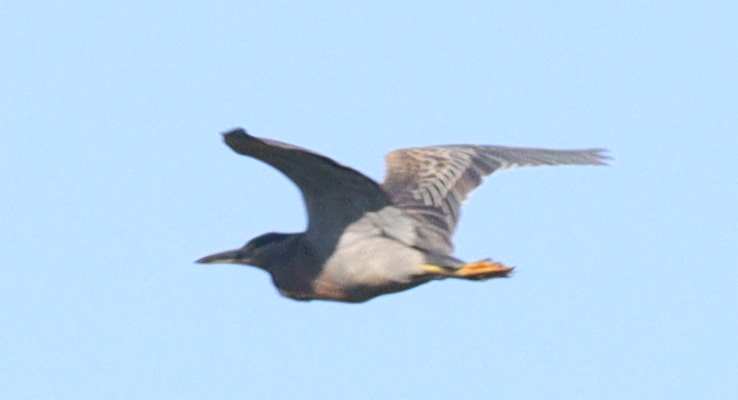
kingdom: Animalia
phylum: Chordata
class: Aves
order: Pelecaniformes
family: Ardeidae
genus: Butorides
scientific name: Butorides striata
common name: Striated heron
